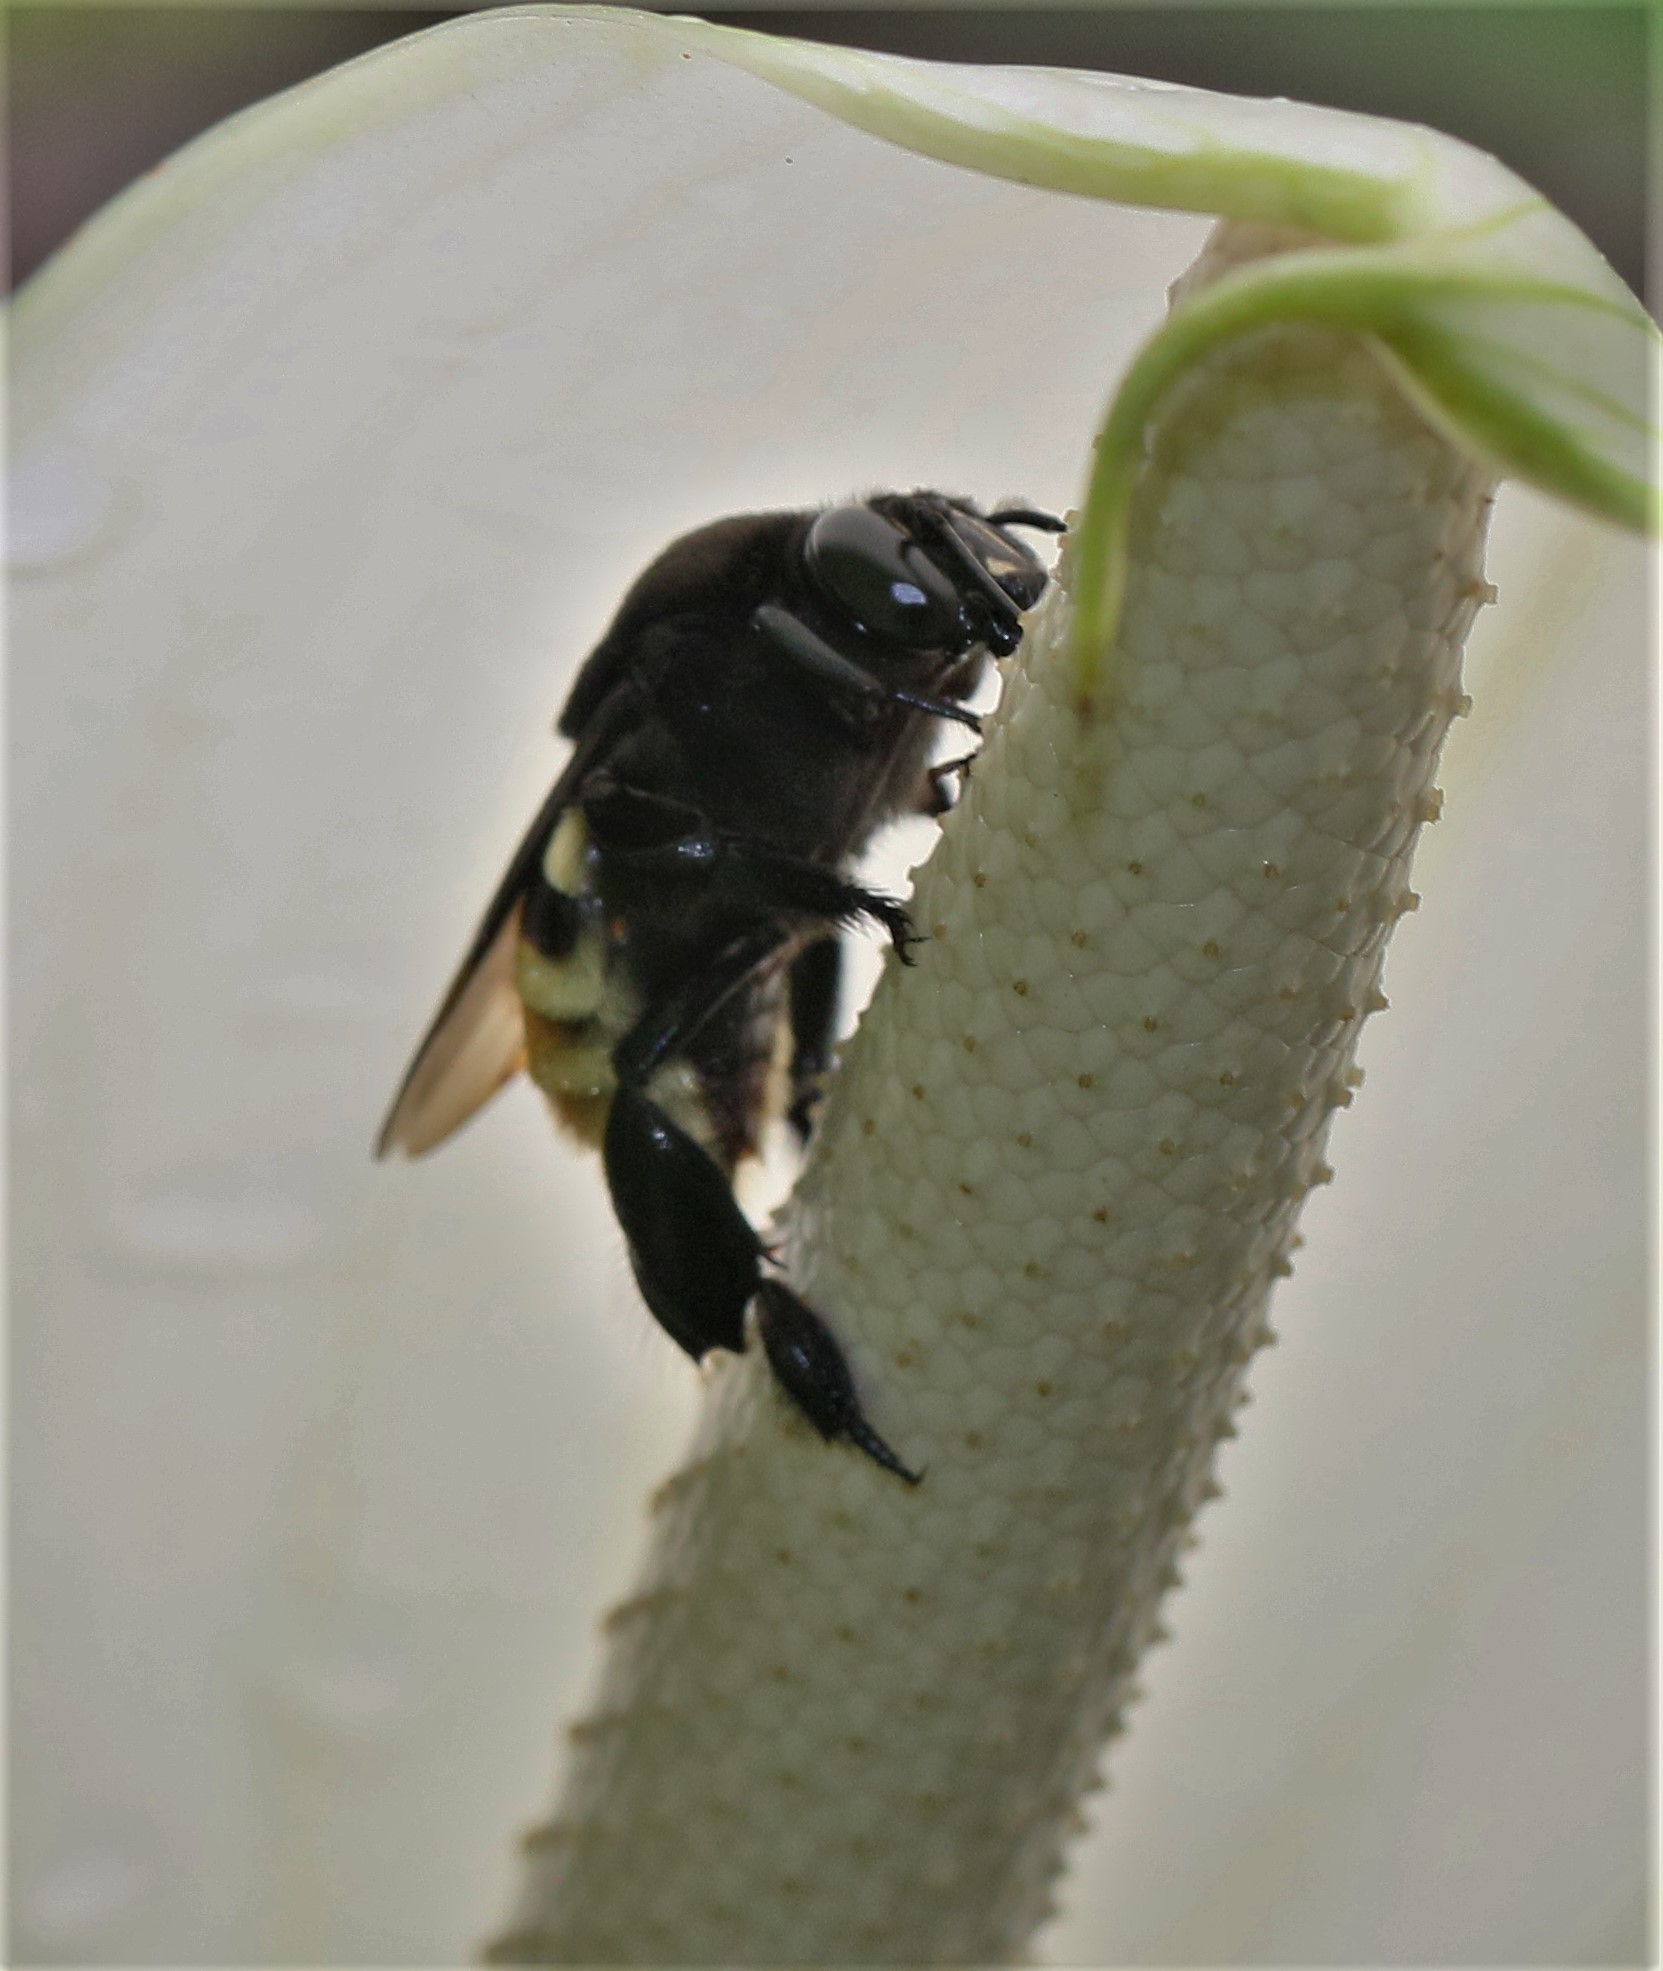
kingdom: Animalia
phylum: Arthropoda
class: Insecta
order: Hymenoptera
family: Apidae
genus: Eulaema
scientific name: Eulaema cingulata
